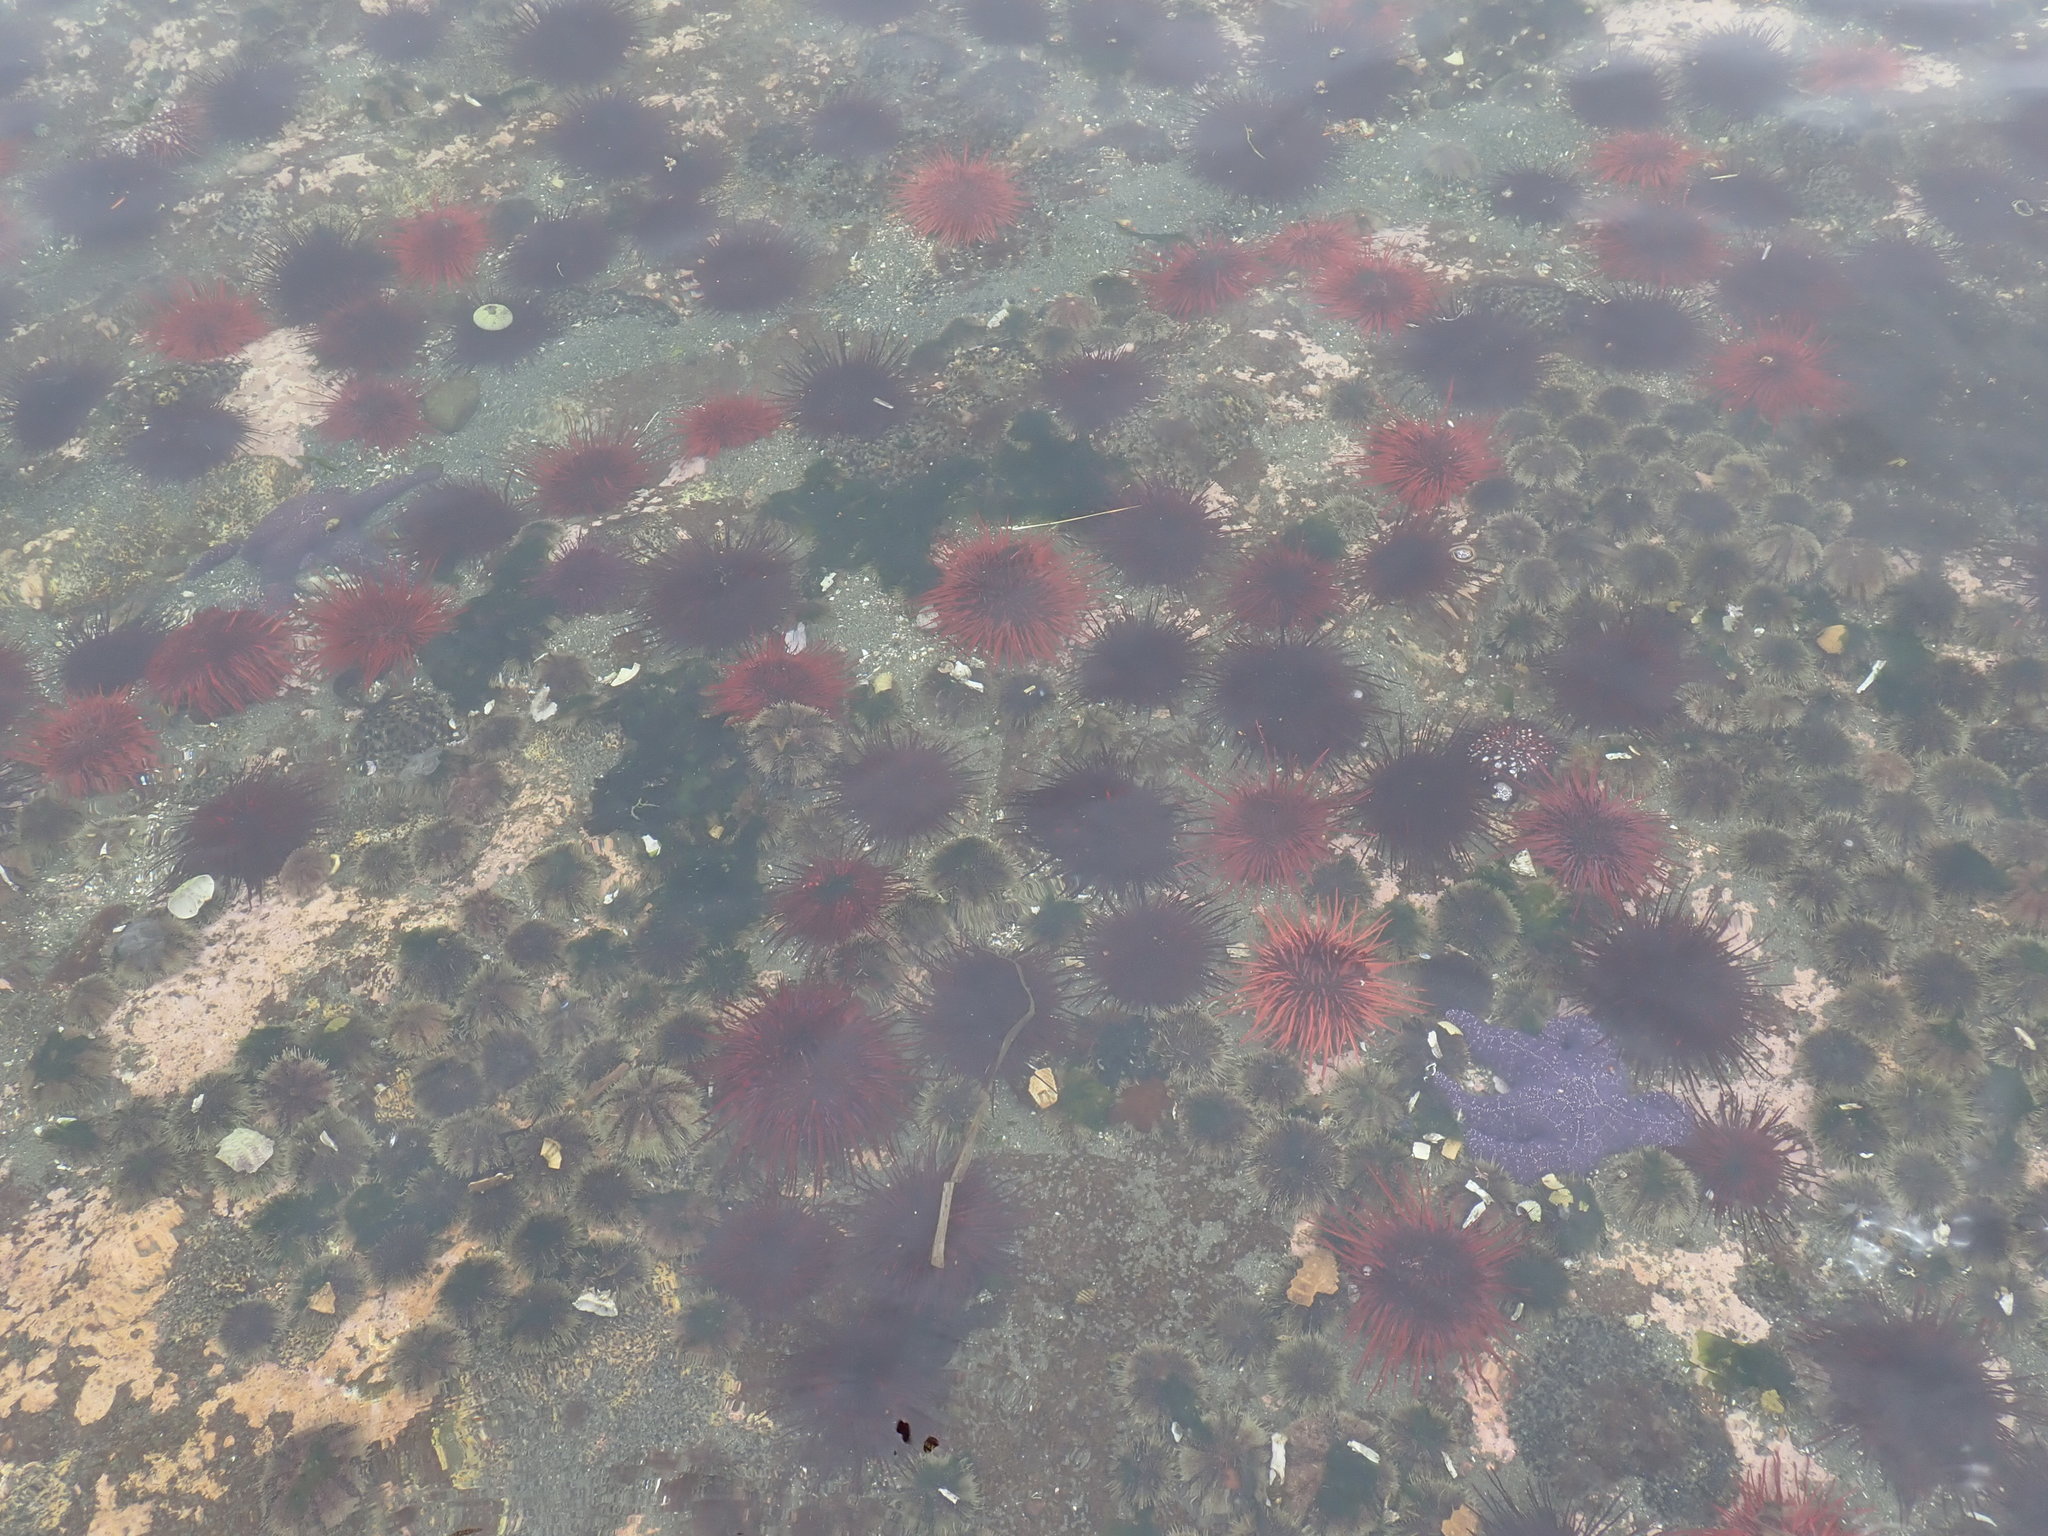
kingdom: Animalia
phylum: Echinodermata
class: Echinoidea
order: Camarodonta
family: Strongylocentrotidae
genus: Mesocentrotus
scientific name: Mesocentrotus franciscanus
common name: Red sea urchin
